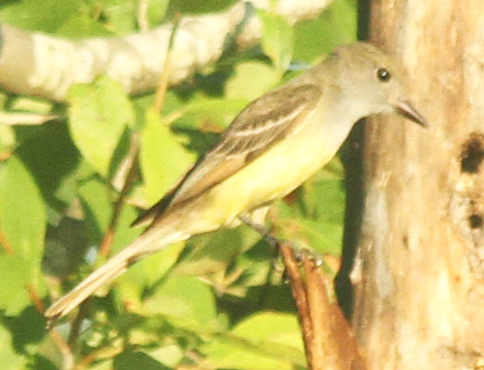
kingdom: Animalia
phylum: Chordata
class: Aves
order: Passeriformes
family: Tyrannidae
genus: Myiarchus
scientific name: Myiarchus crinitus
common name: Great crested flycatcher
